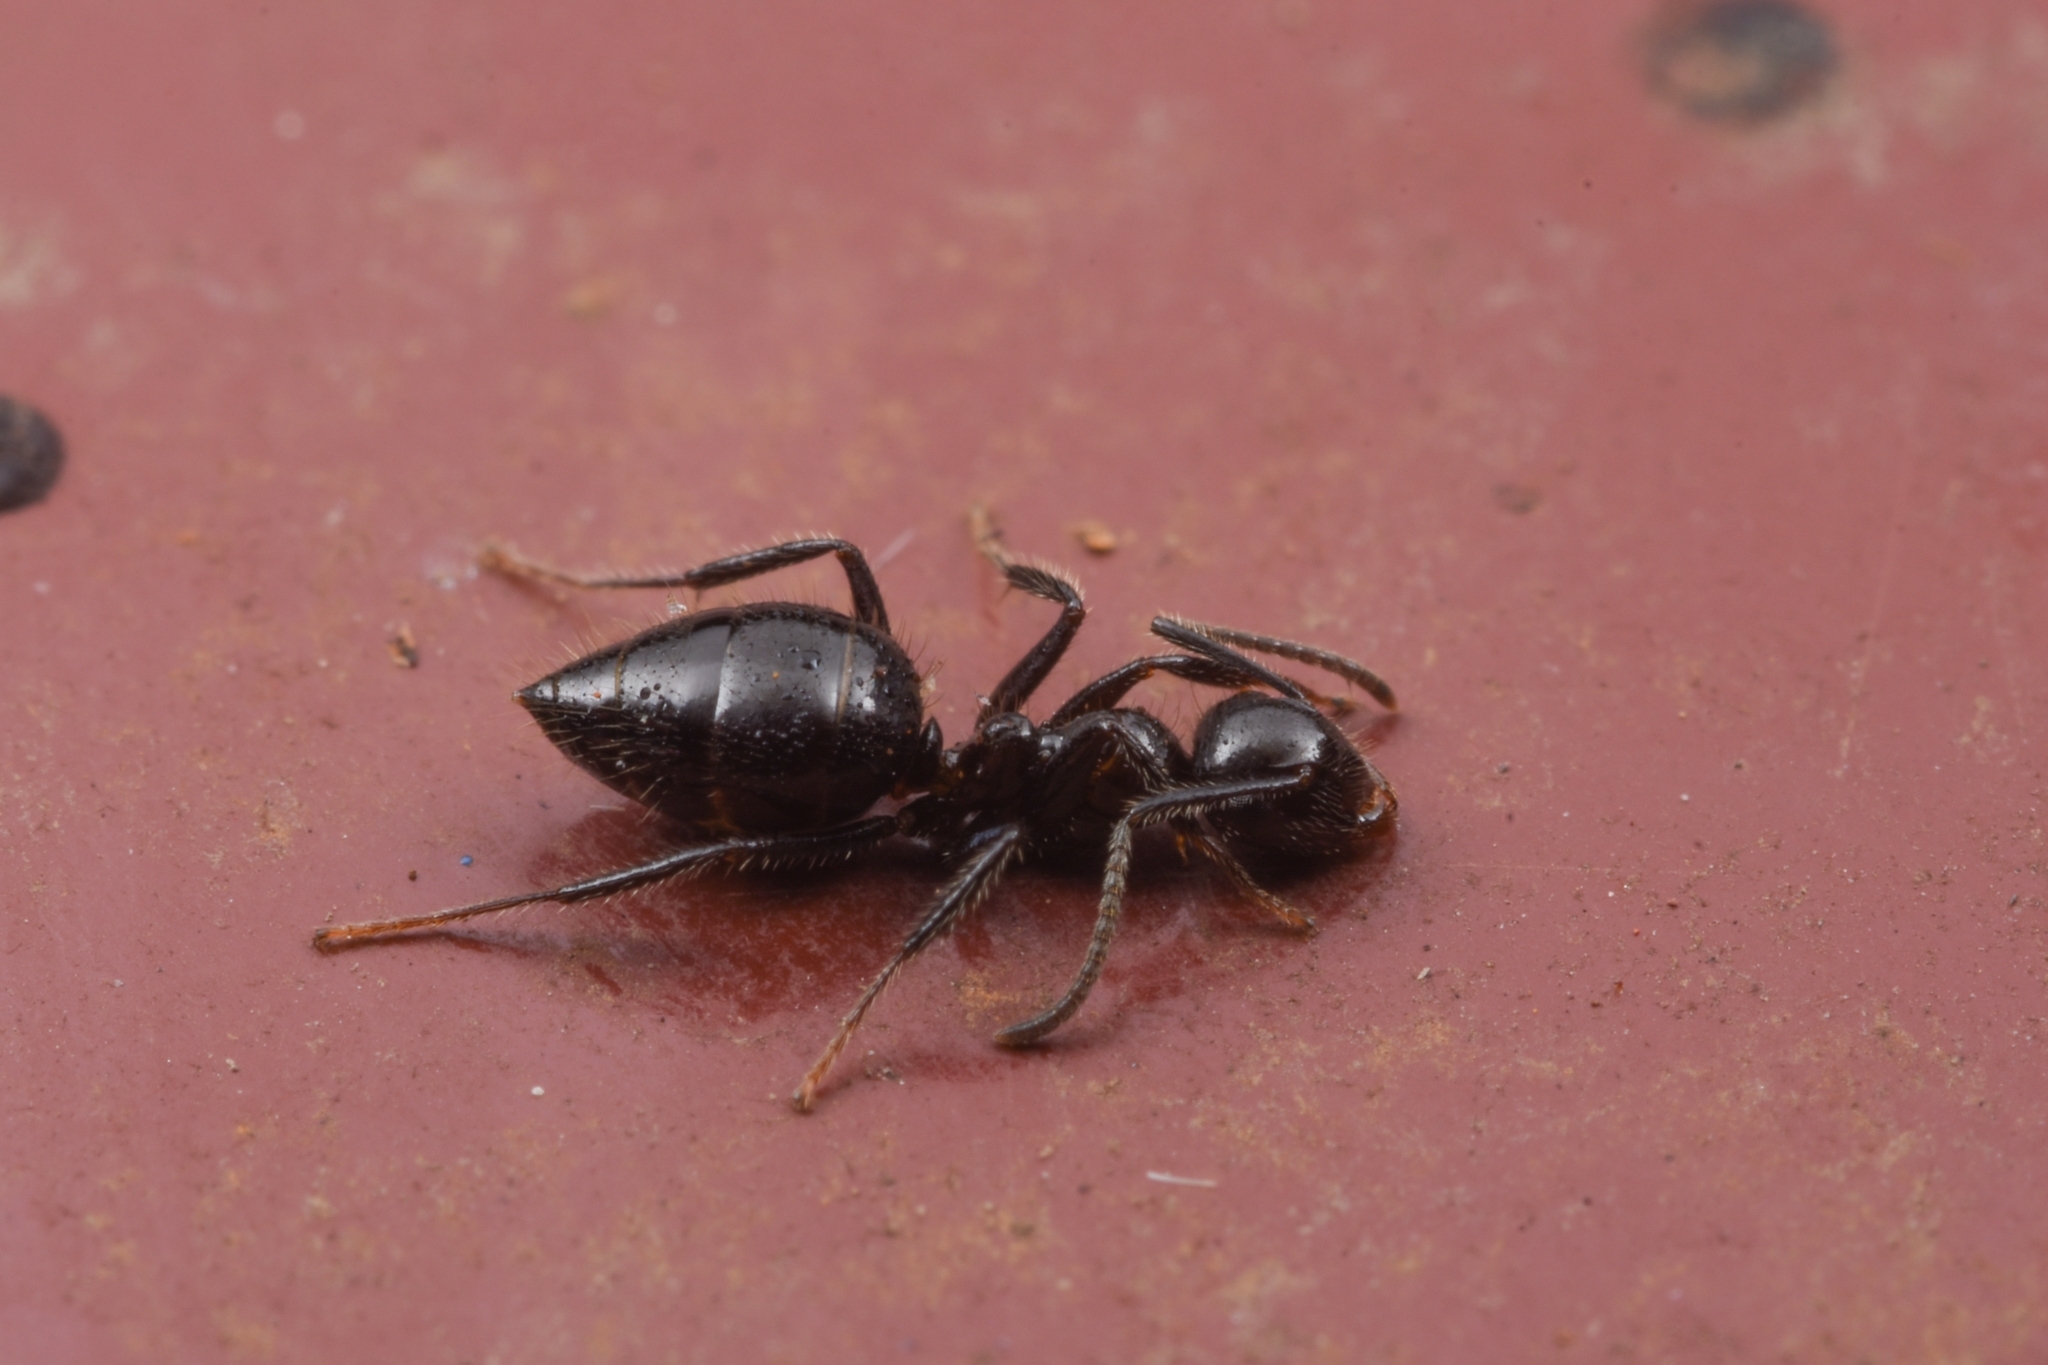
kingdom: Animalia
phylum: Arthropoda
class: Insecta
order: Hymenoptera
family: Formicidae
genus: Camponotus
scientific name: Camponotus vitreus
